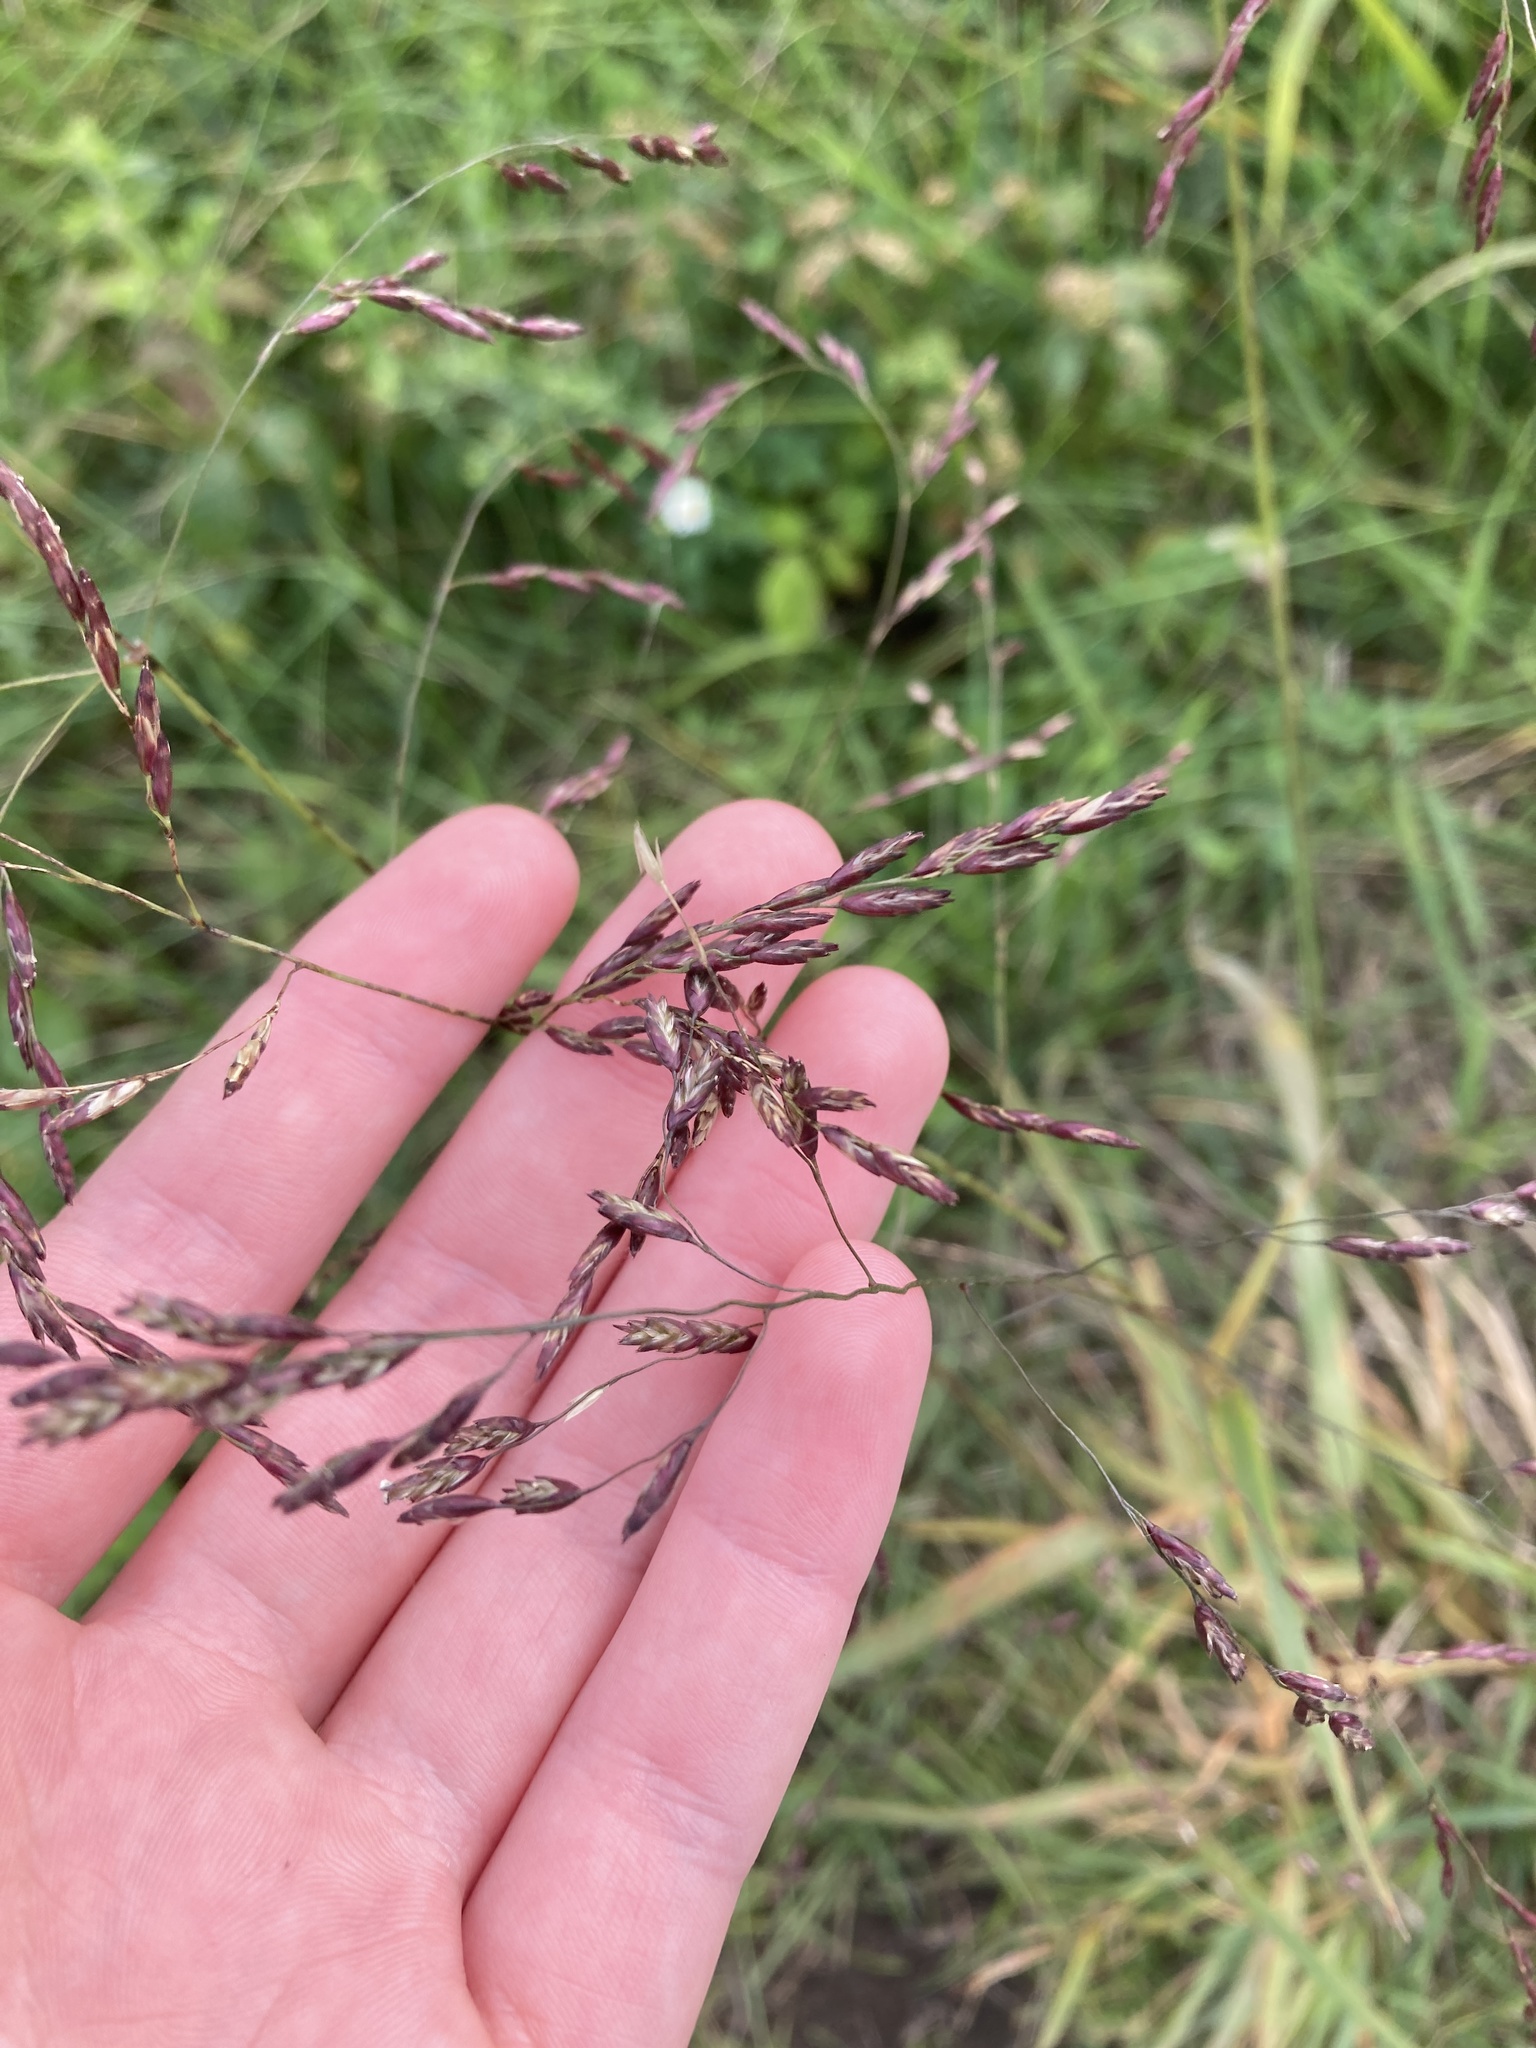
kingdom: Plantae
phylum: Tracheophyta
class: Liliopsida
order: Poales
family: Poaceae
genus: Tridens
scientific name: Tridens flavus
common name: Purpletop
